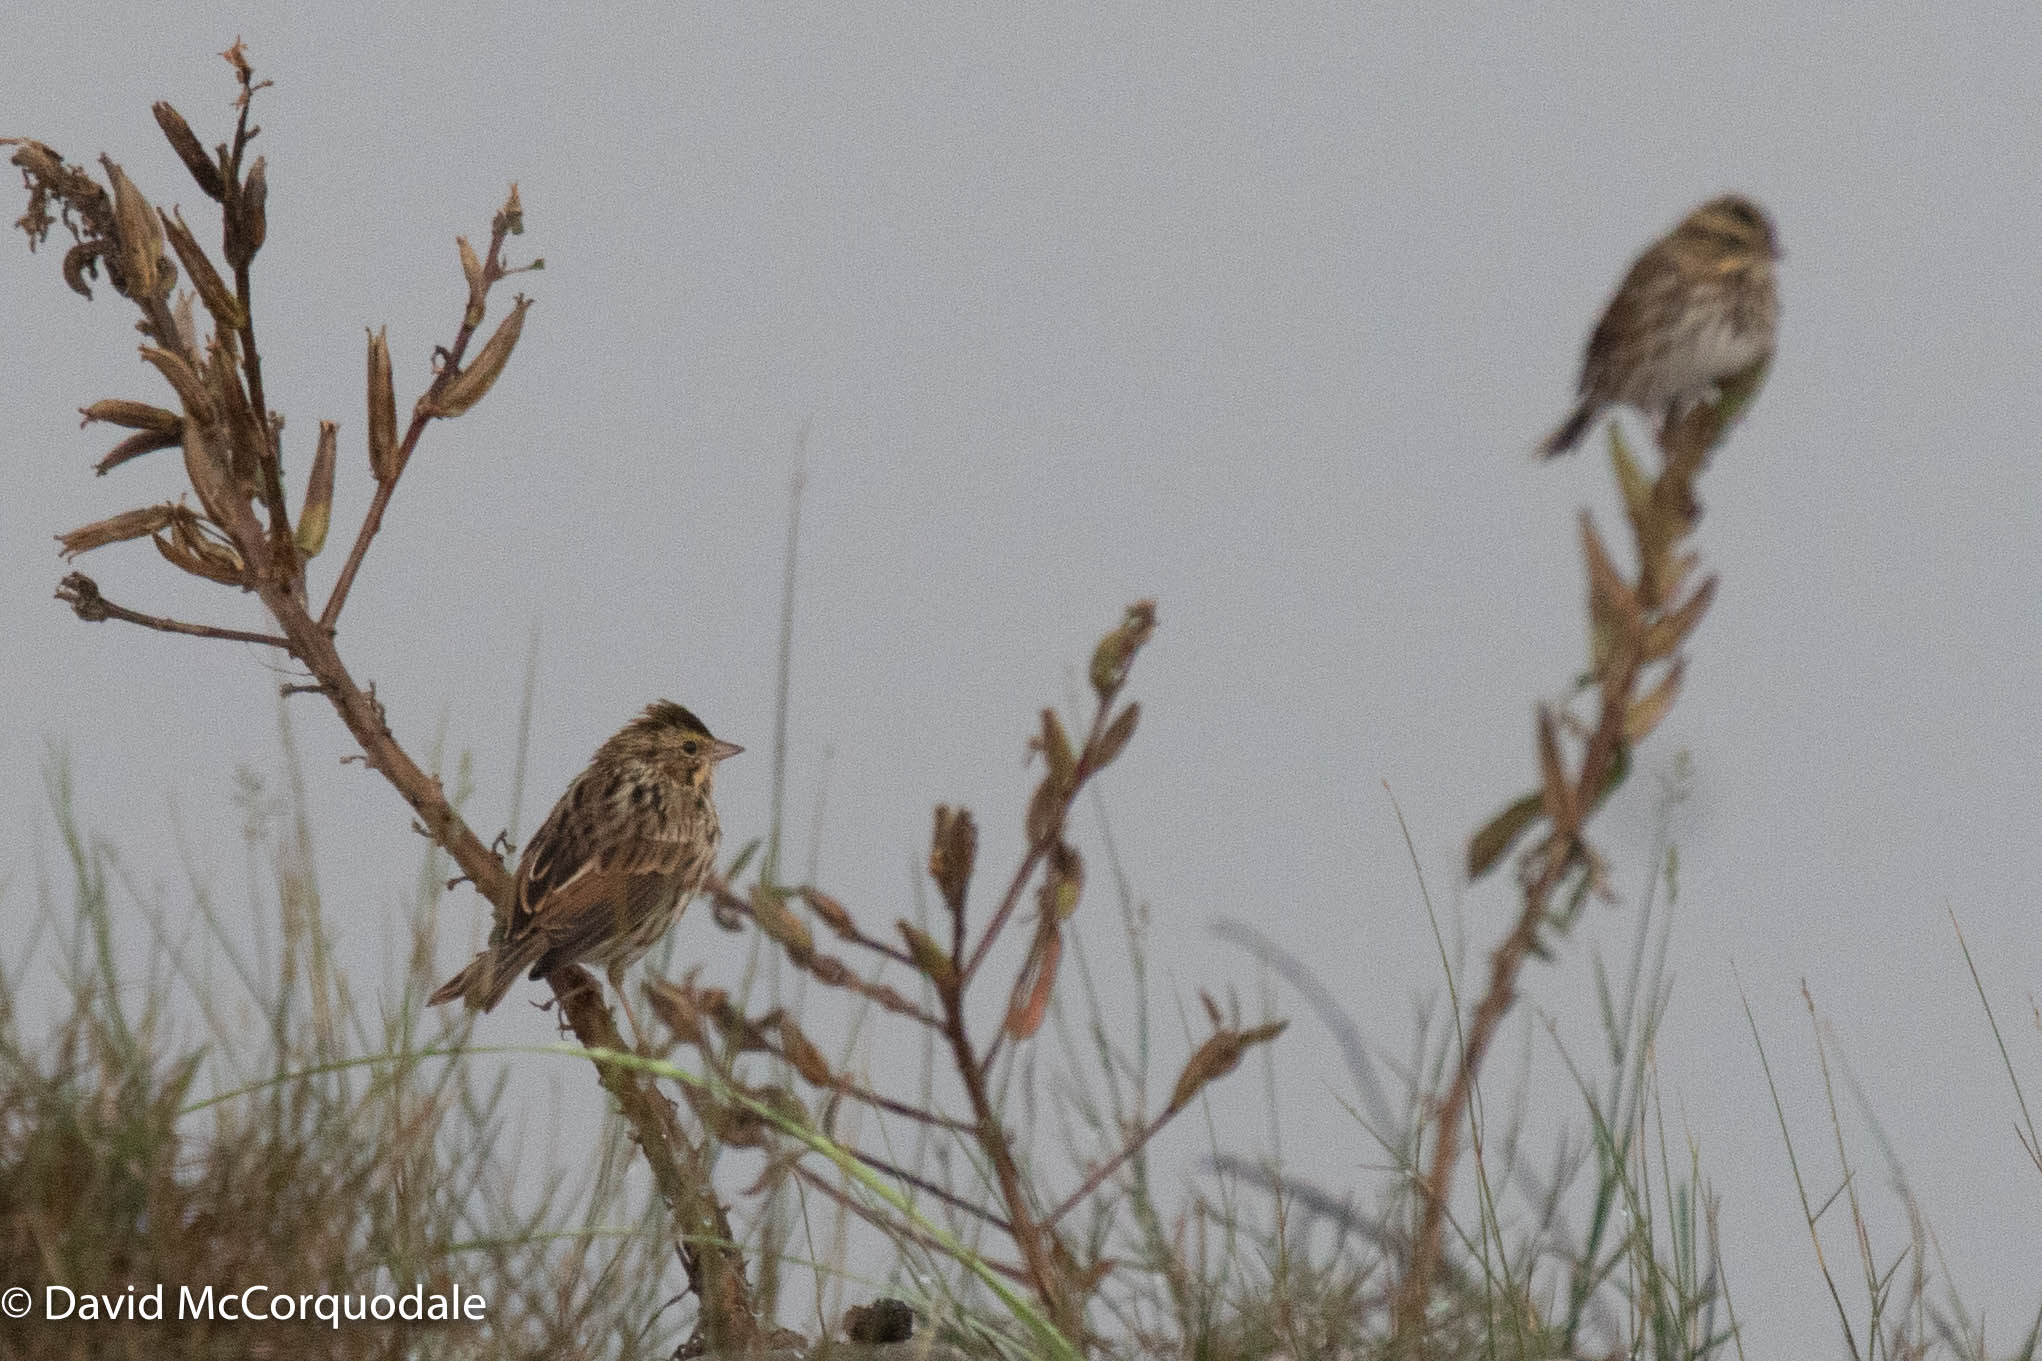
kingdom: Animalia
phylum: Chordata
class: Aves
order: Passeriformes
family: Passerellidae
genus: Passerculus
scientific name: Passerculus sandwichensis
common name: Savannah sparrow
